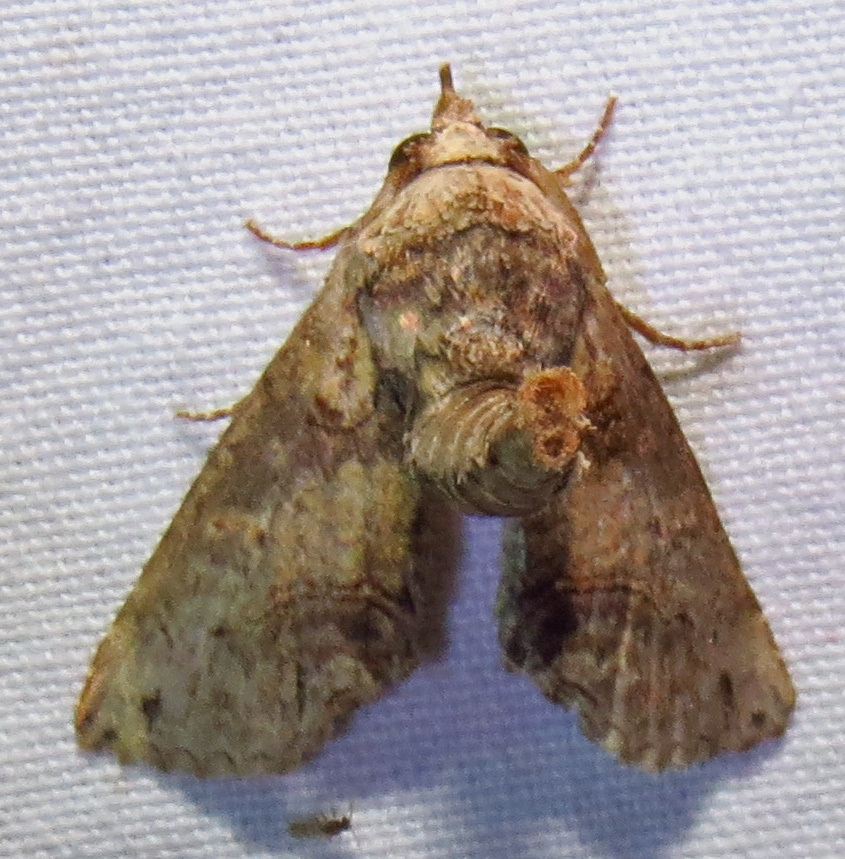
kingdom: Animalia
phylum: Arthropoda
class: Insecta
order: Lepidoptera
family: Euteliidae
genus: Paectes
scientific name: Paectes abrostoloides
